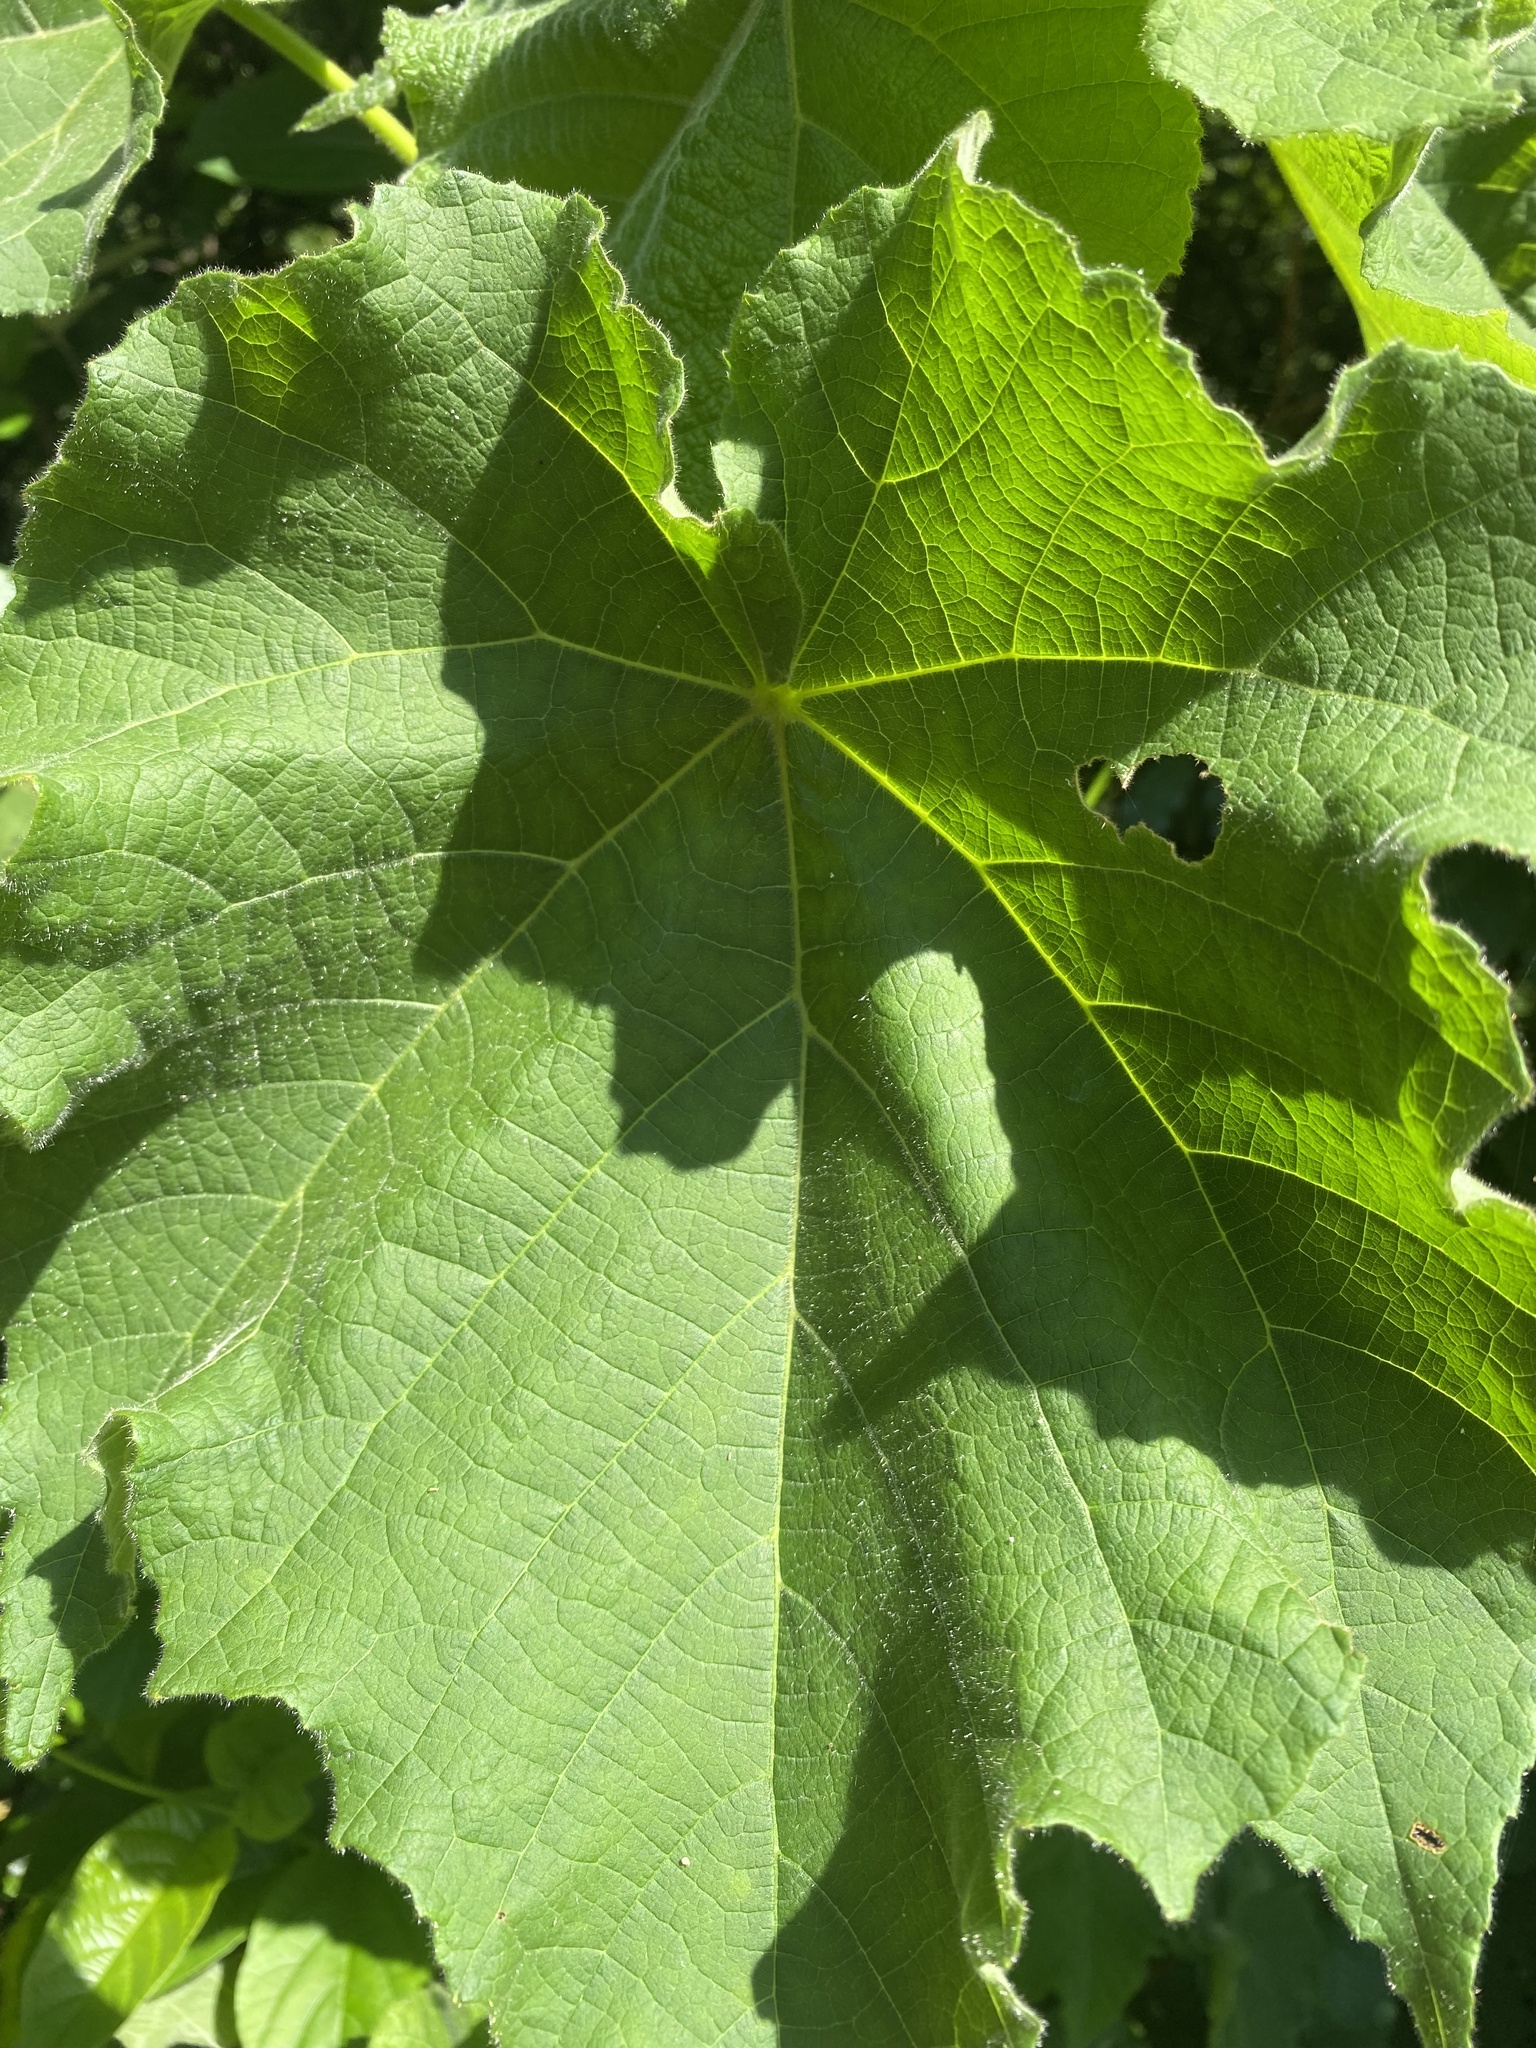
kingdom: Plantae
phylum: Tracheophyta
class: Magnoliopsida
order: Malvales
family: Malvaceae
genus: Dombeya
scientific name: Dombeya burgessiae
